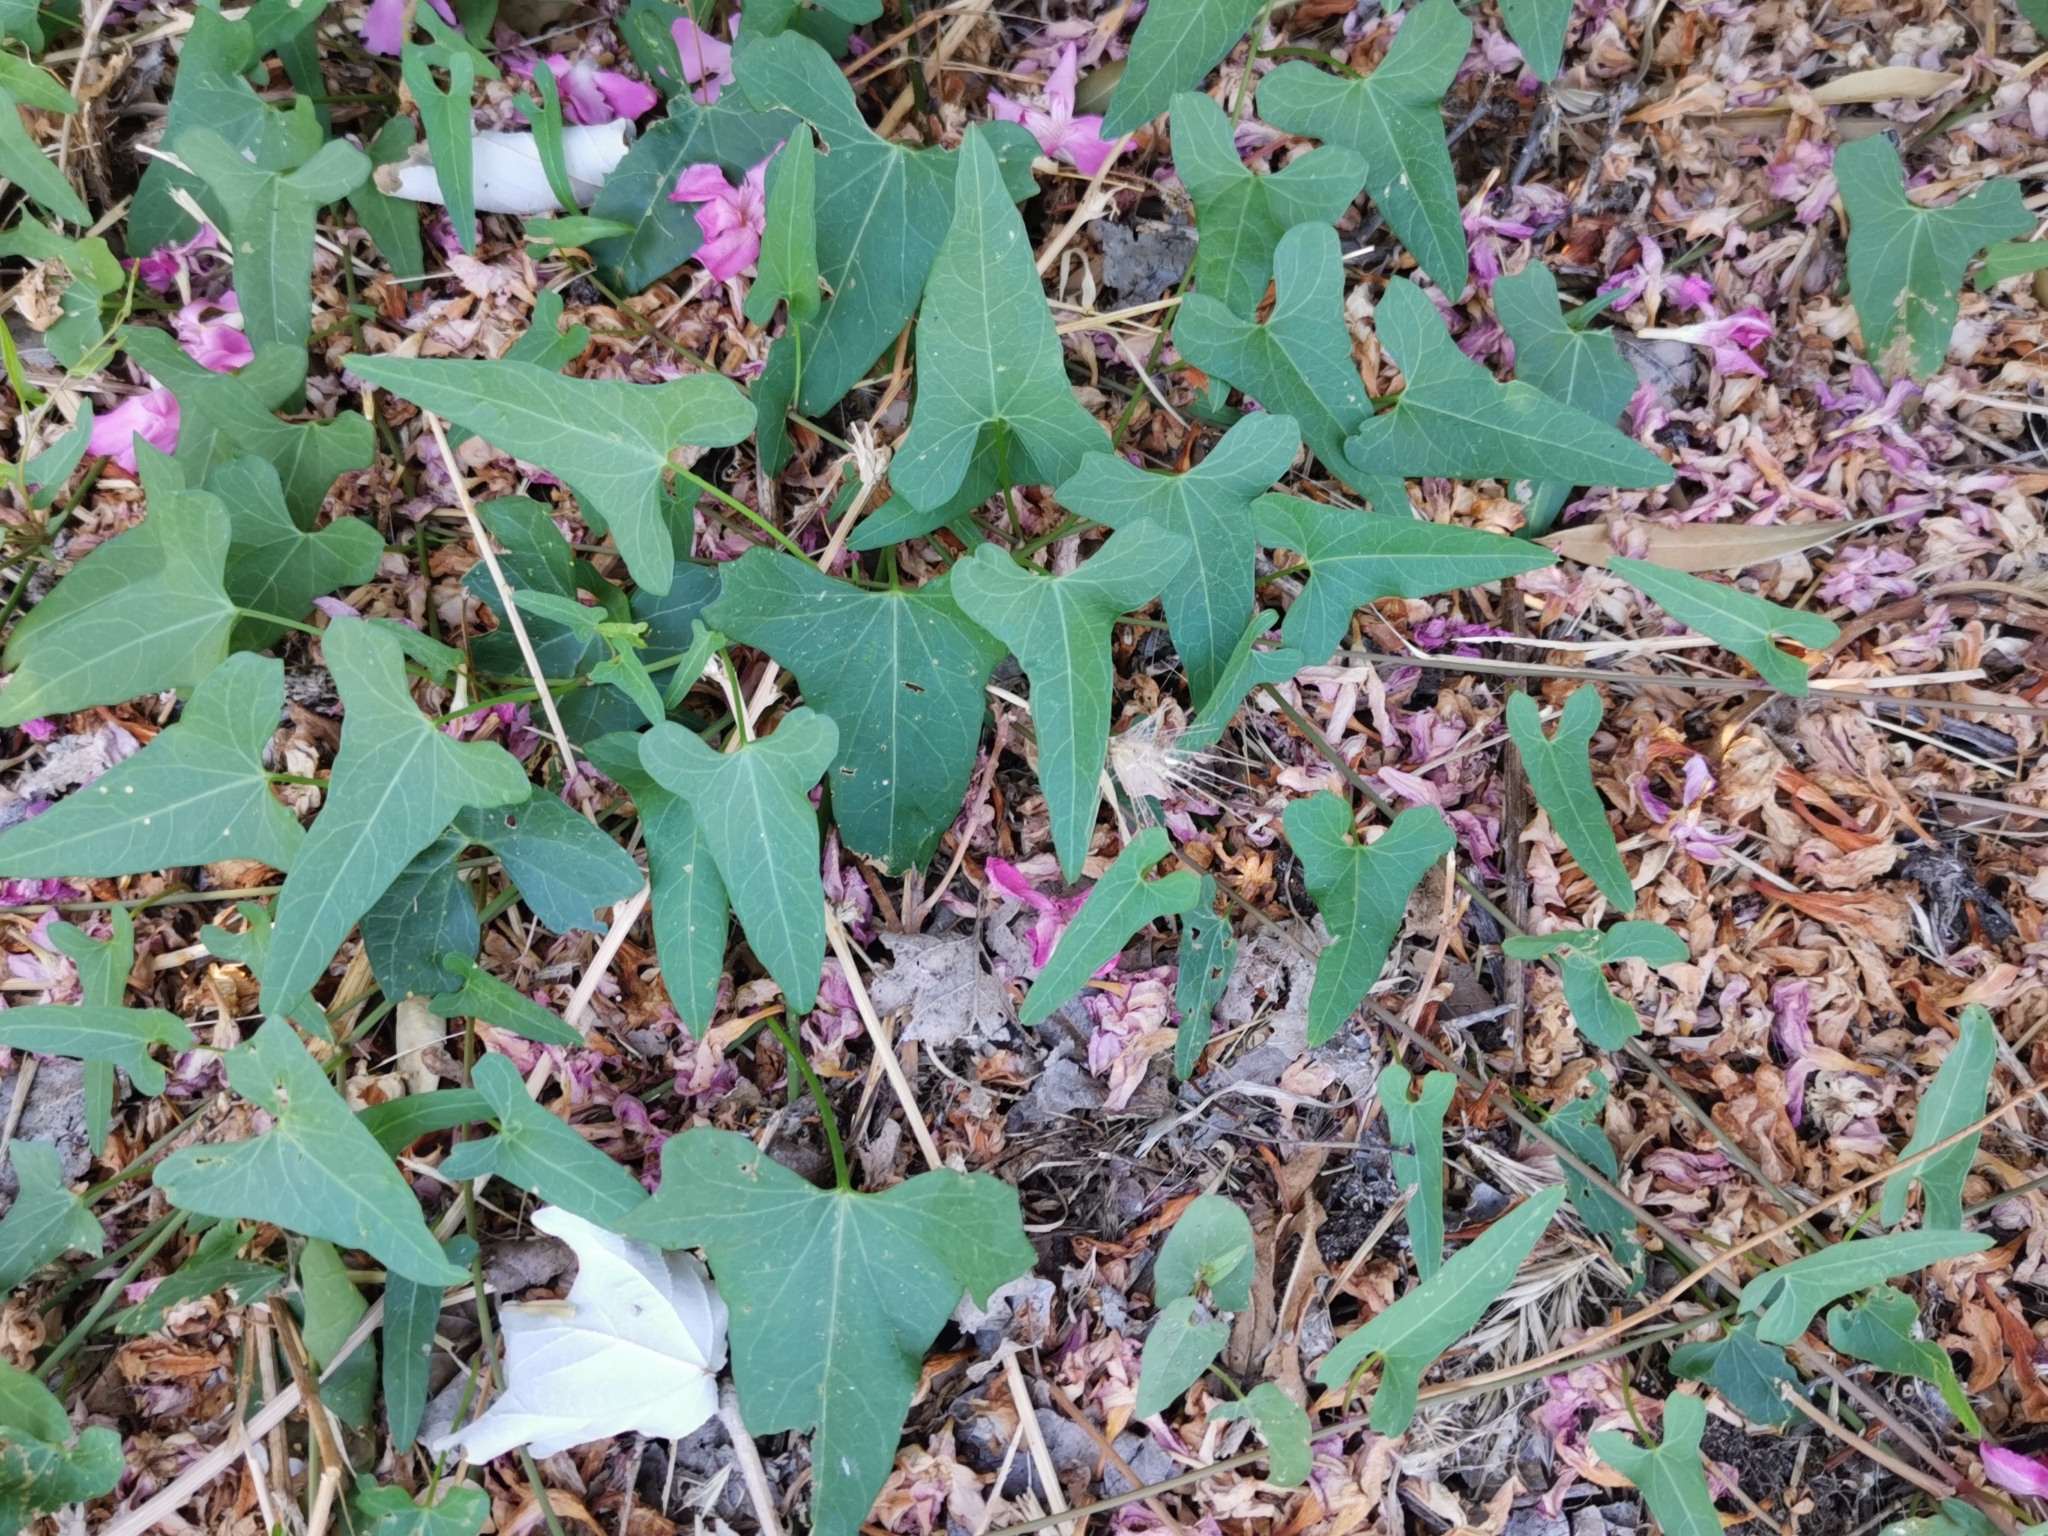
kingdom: Plantae
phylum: Tracheophyta
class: Magnoliopsida
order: Gentianales
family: Apocynaceae
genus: Cynanchum
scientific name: Cynanchum acutum
